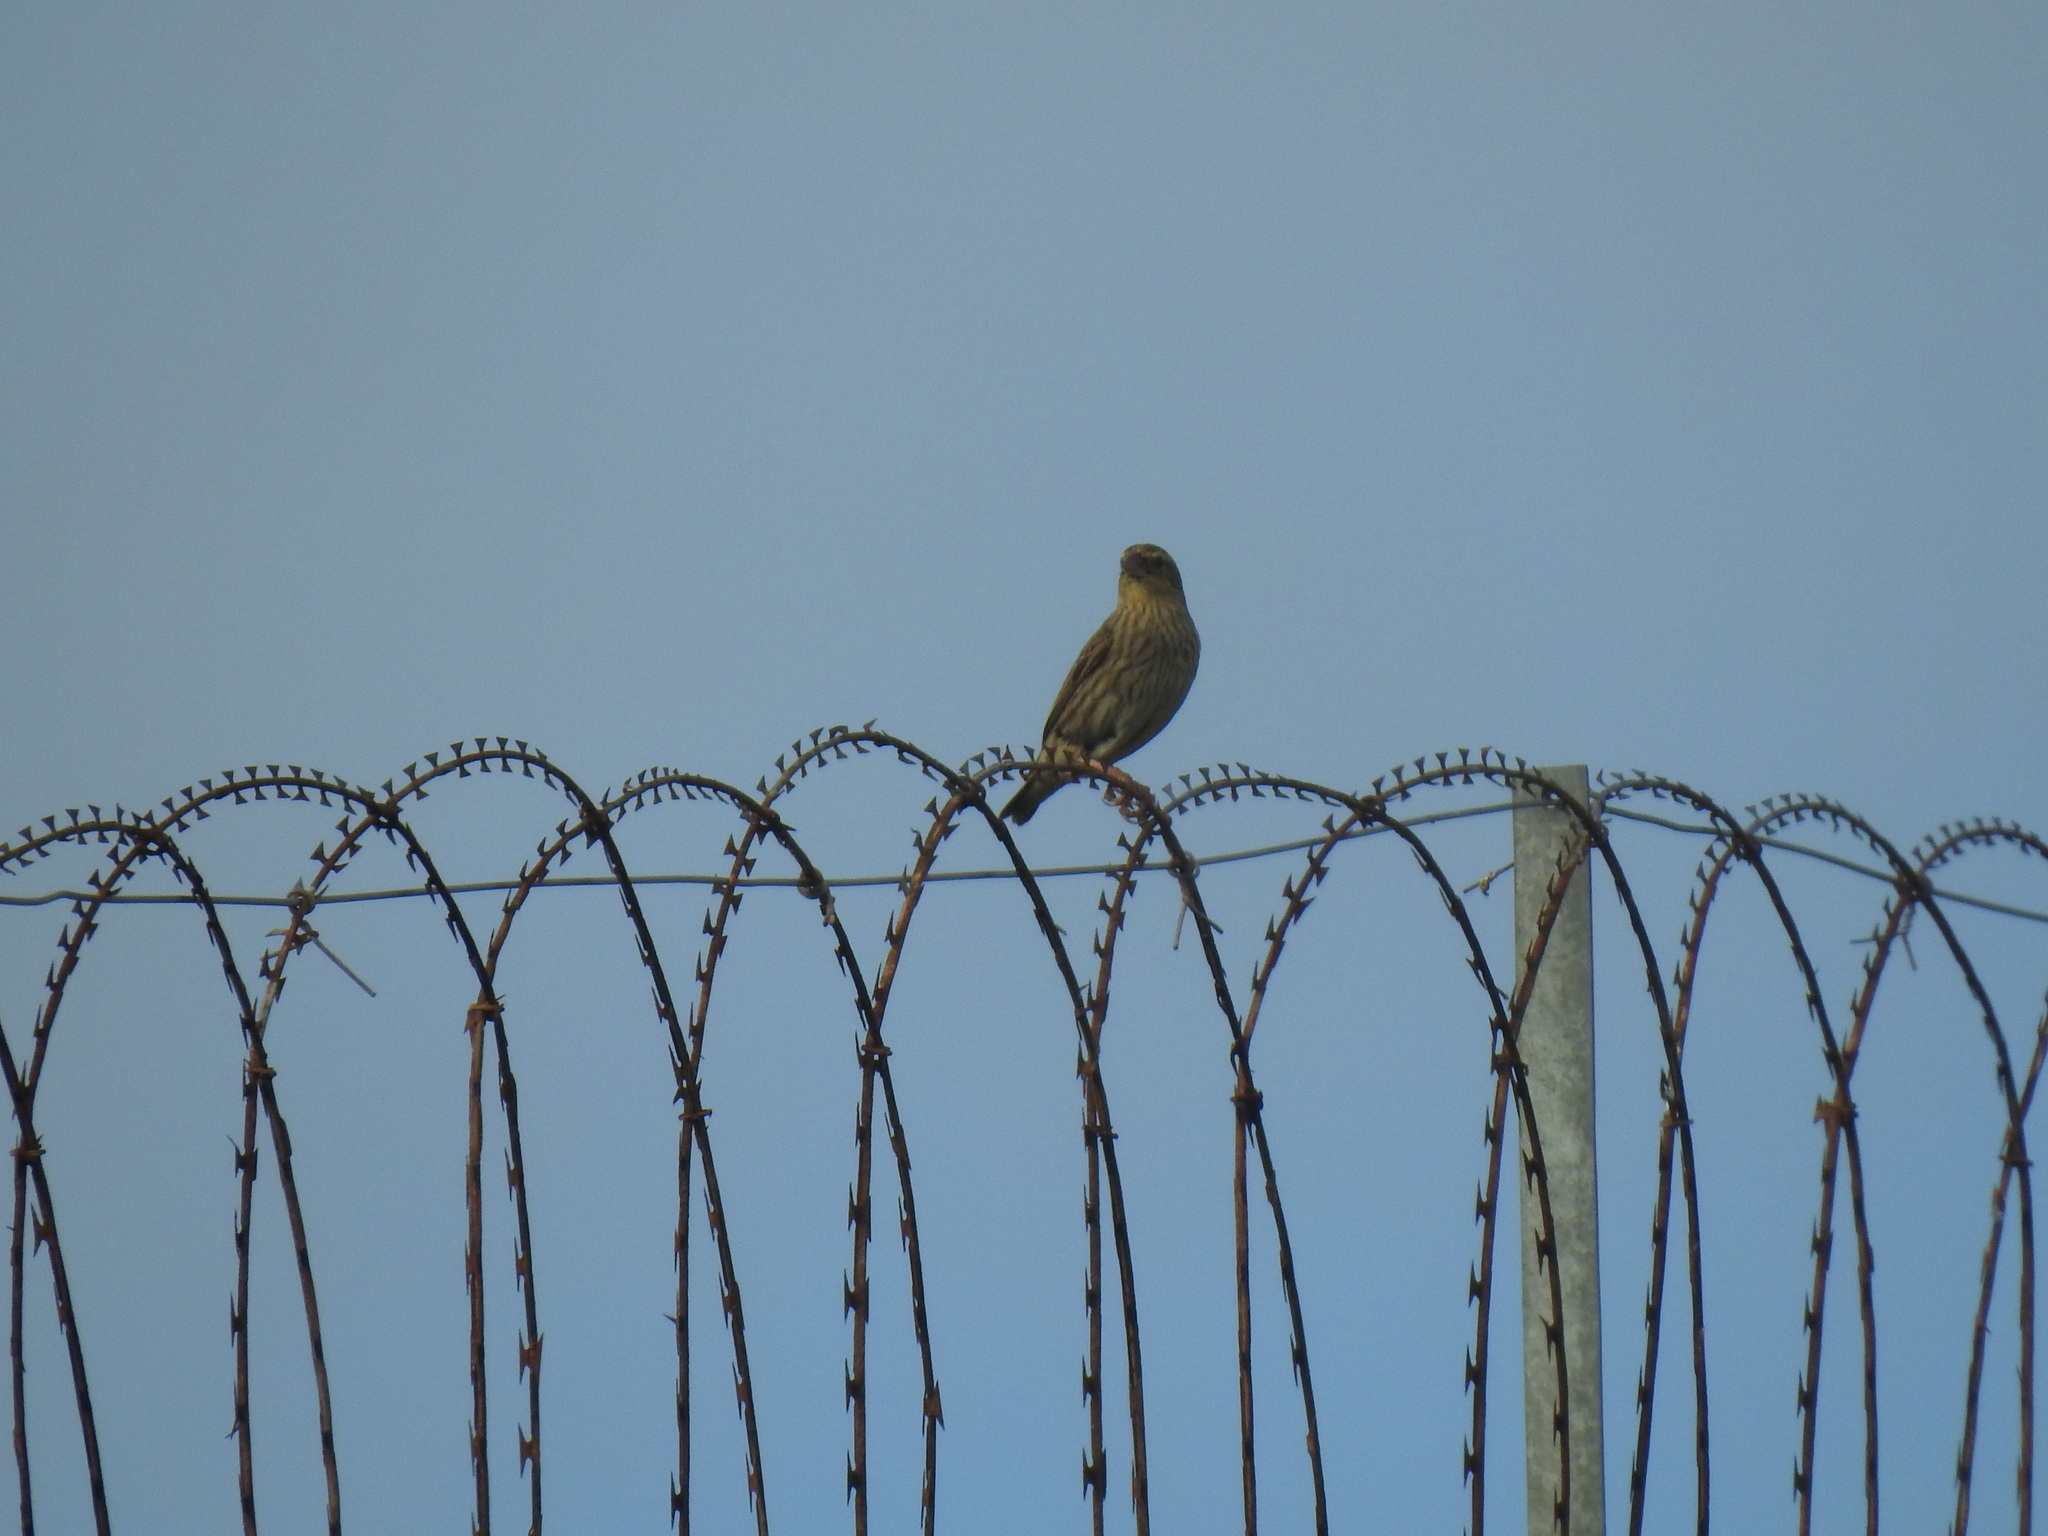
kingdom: Animalia
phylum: Chordata
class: Aves
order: Passeriformes
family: Ploceidae
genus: Euplectes
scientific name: Euplectes orix
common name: Southern red bishop
